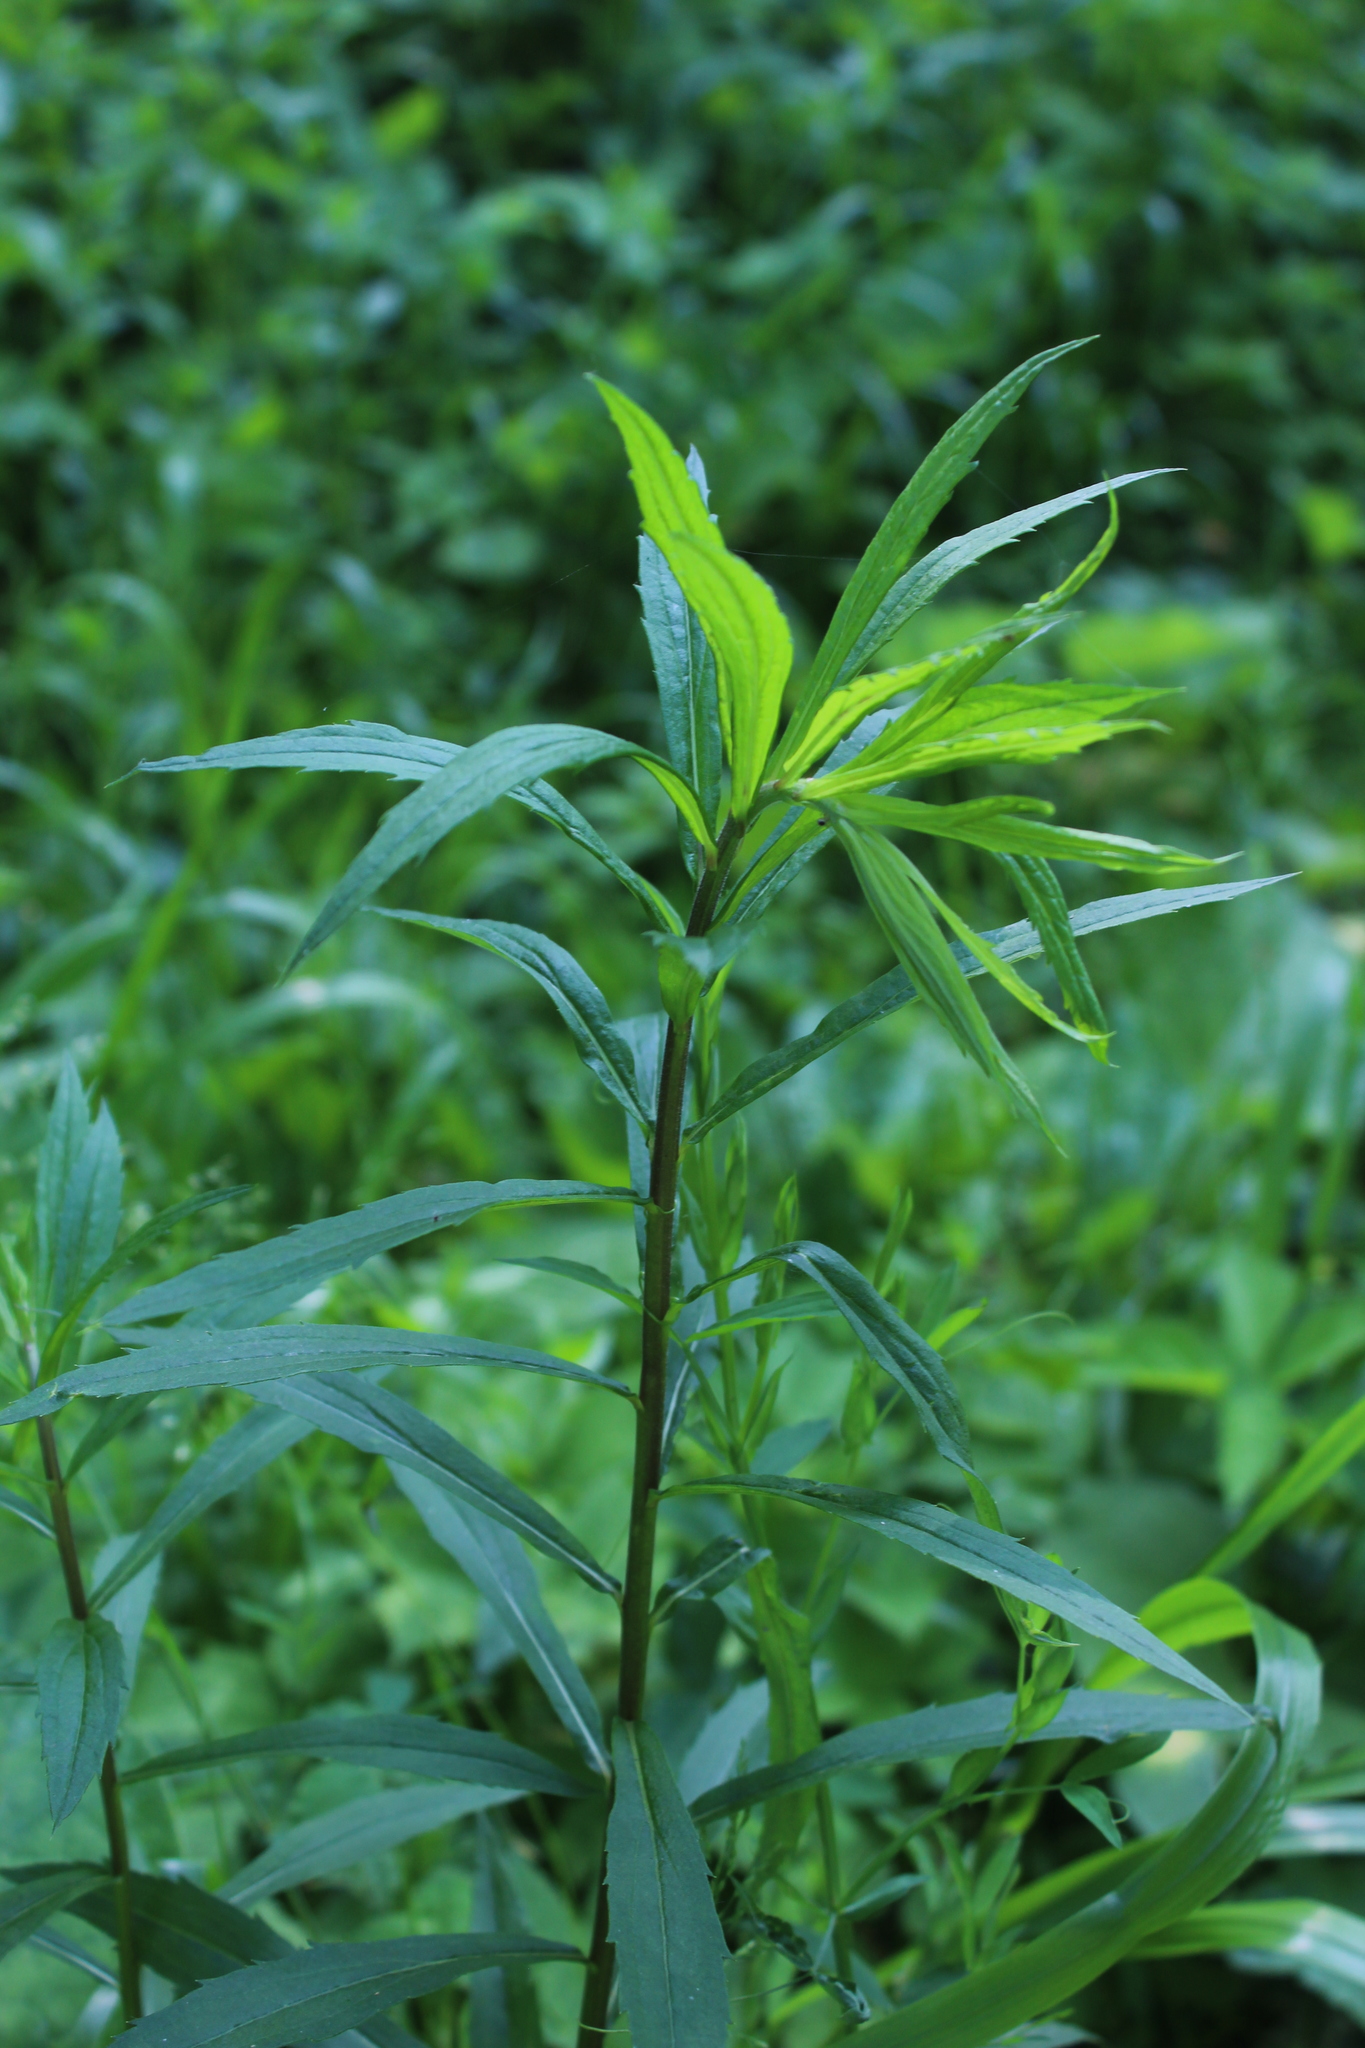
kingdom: Plantae
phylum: Tracheophyta
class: Magnoliopsida
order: Asterales
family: Asteraceae
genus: Solidago
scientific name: Solidago canadensis
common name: Canada goldenrod
